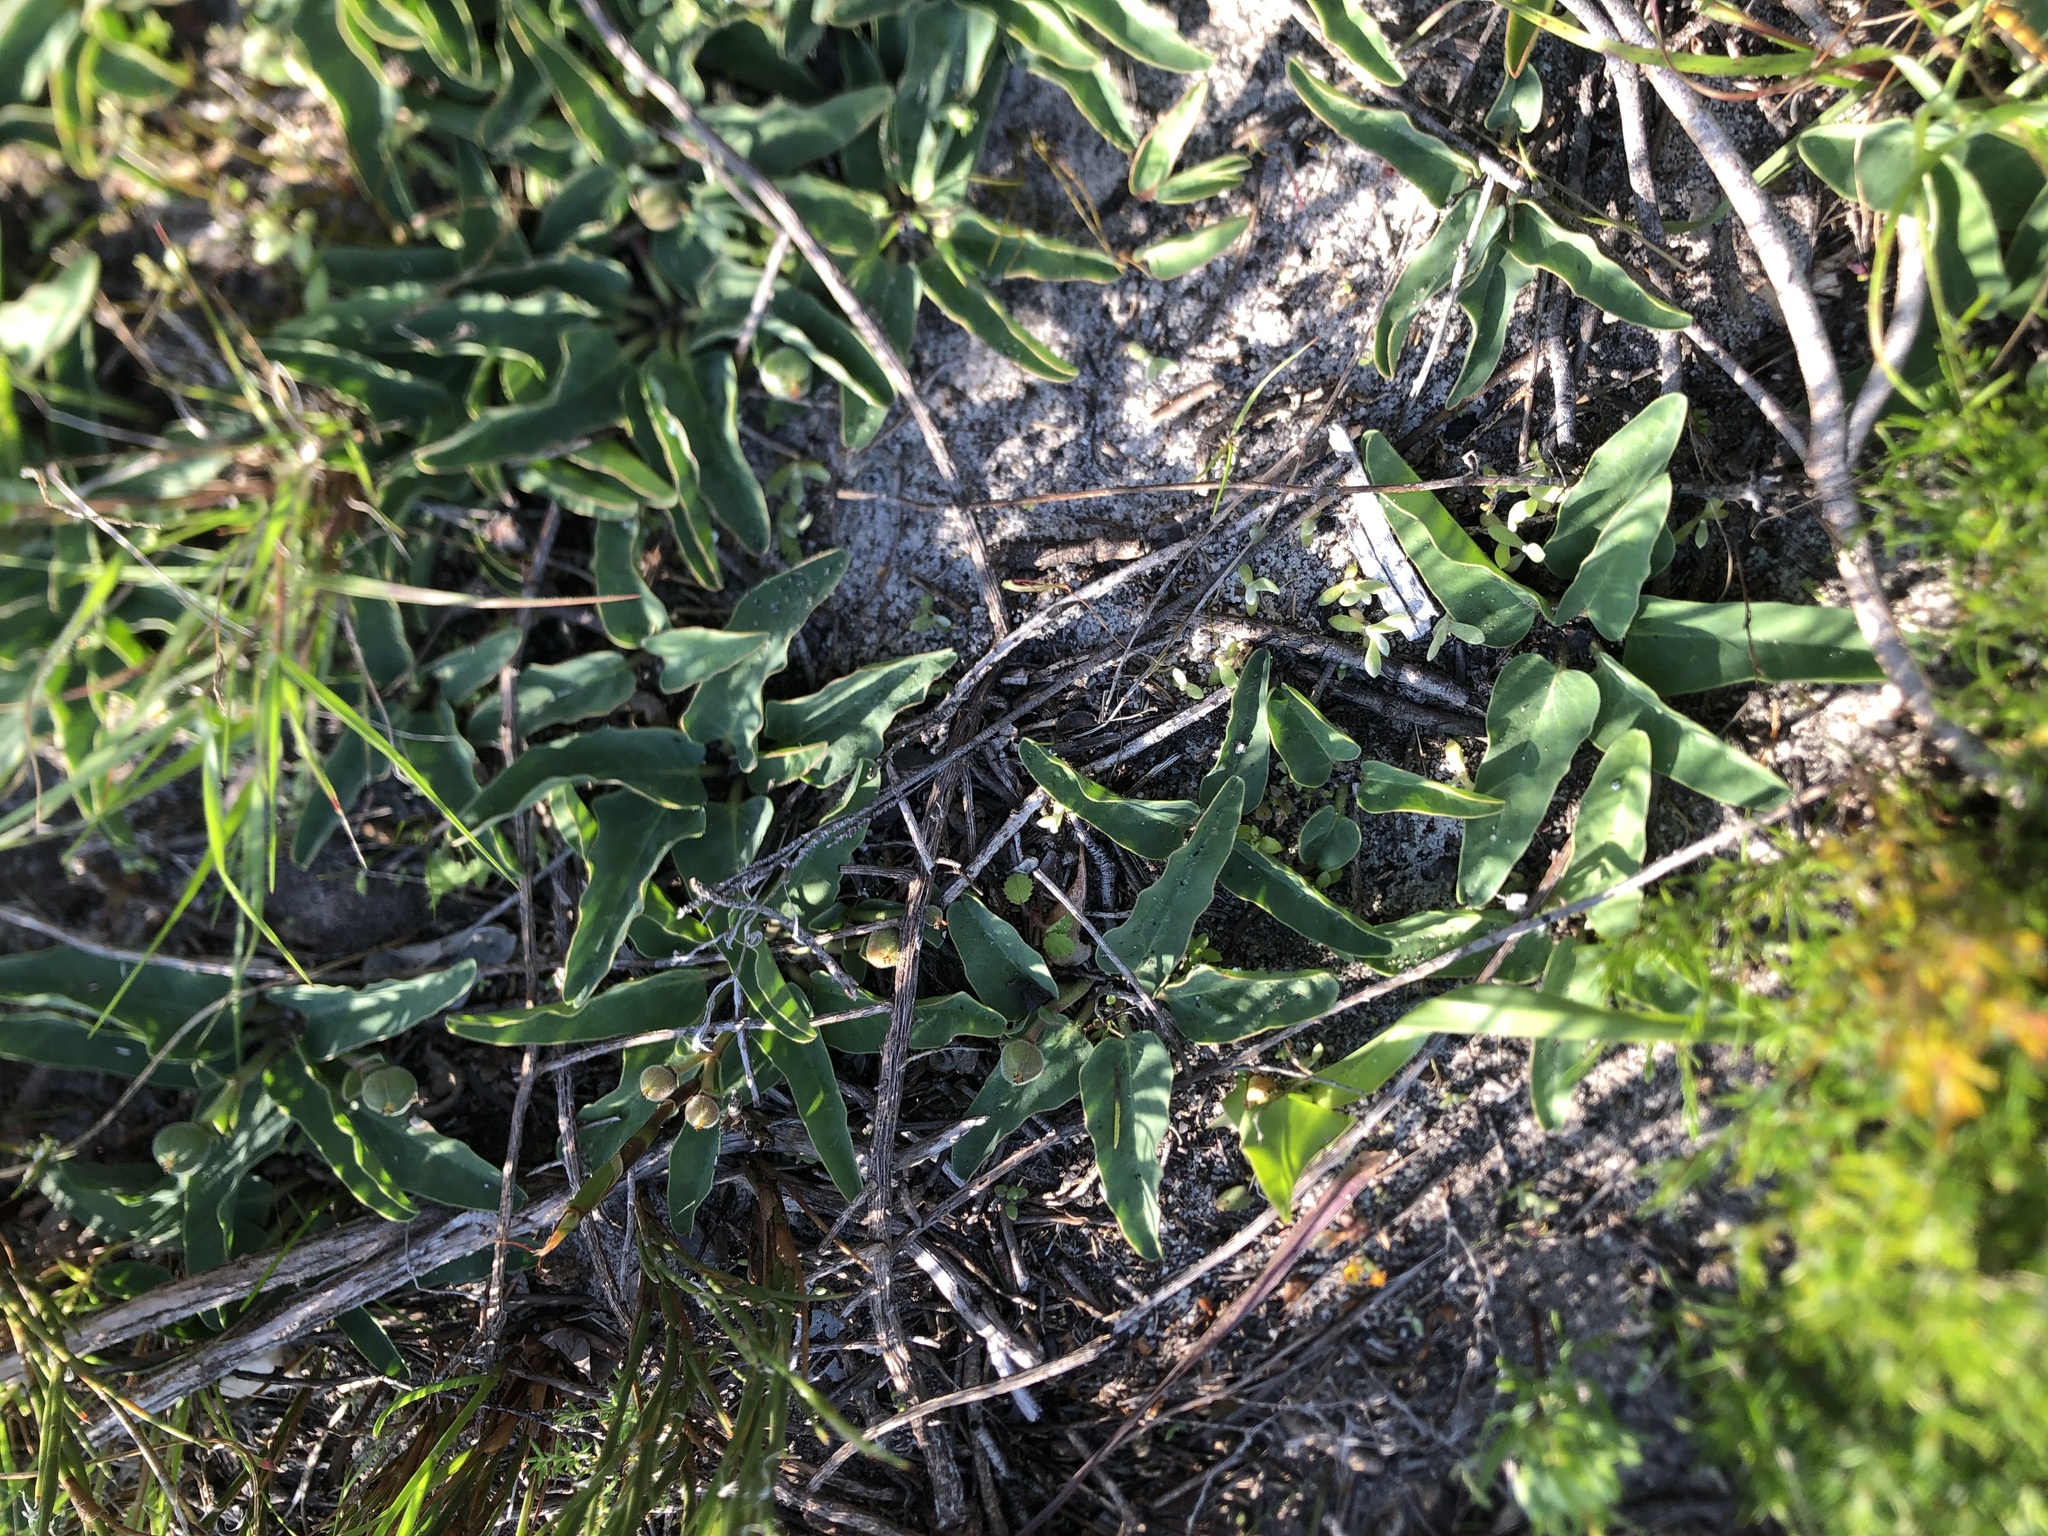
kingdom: Plantae
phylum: Tracheophyta
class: Magnoliopsida
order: Malpighiales
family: Euphorbiaceae
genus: Euphorbia
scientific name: Euphorbia tuberosa
